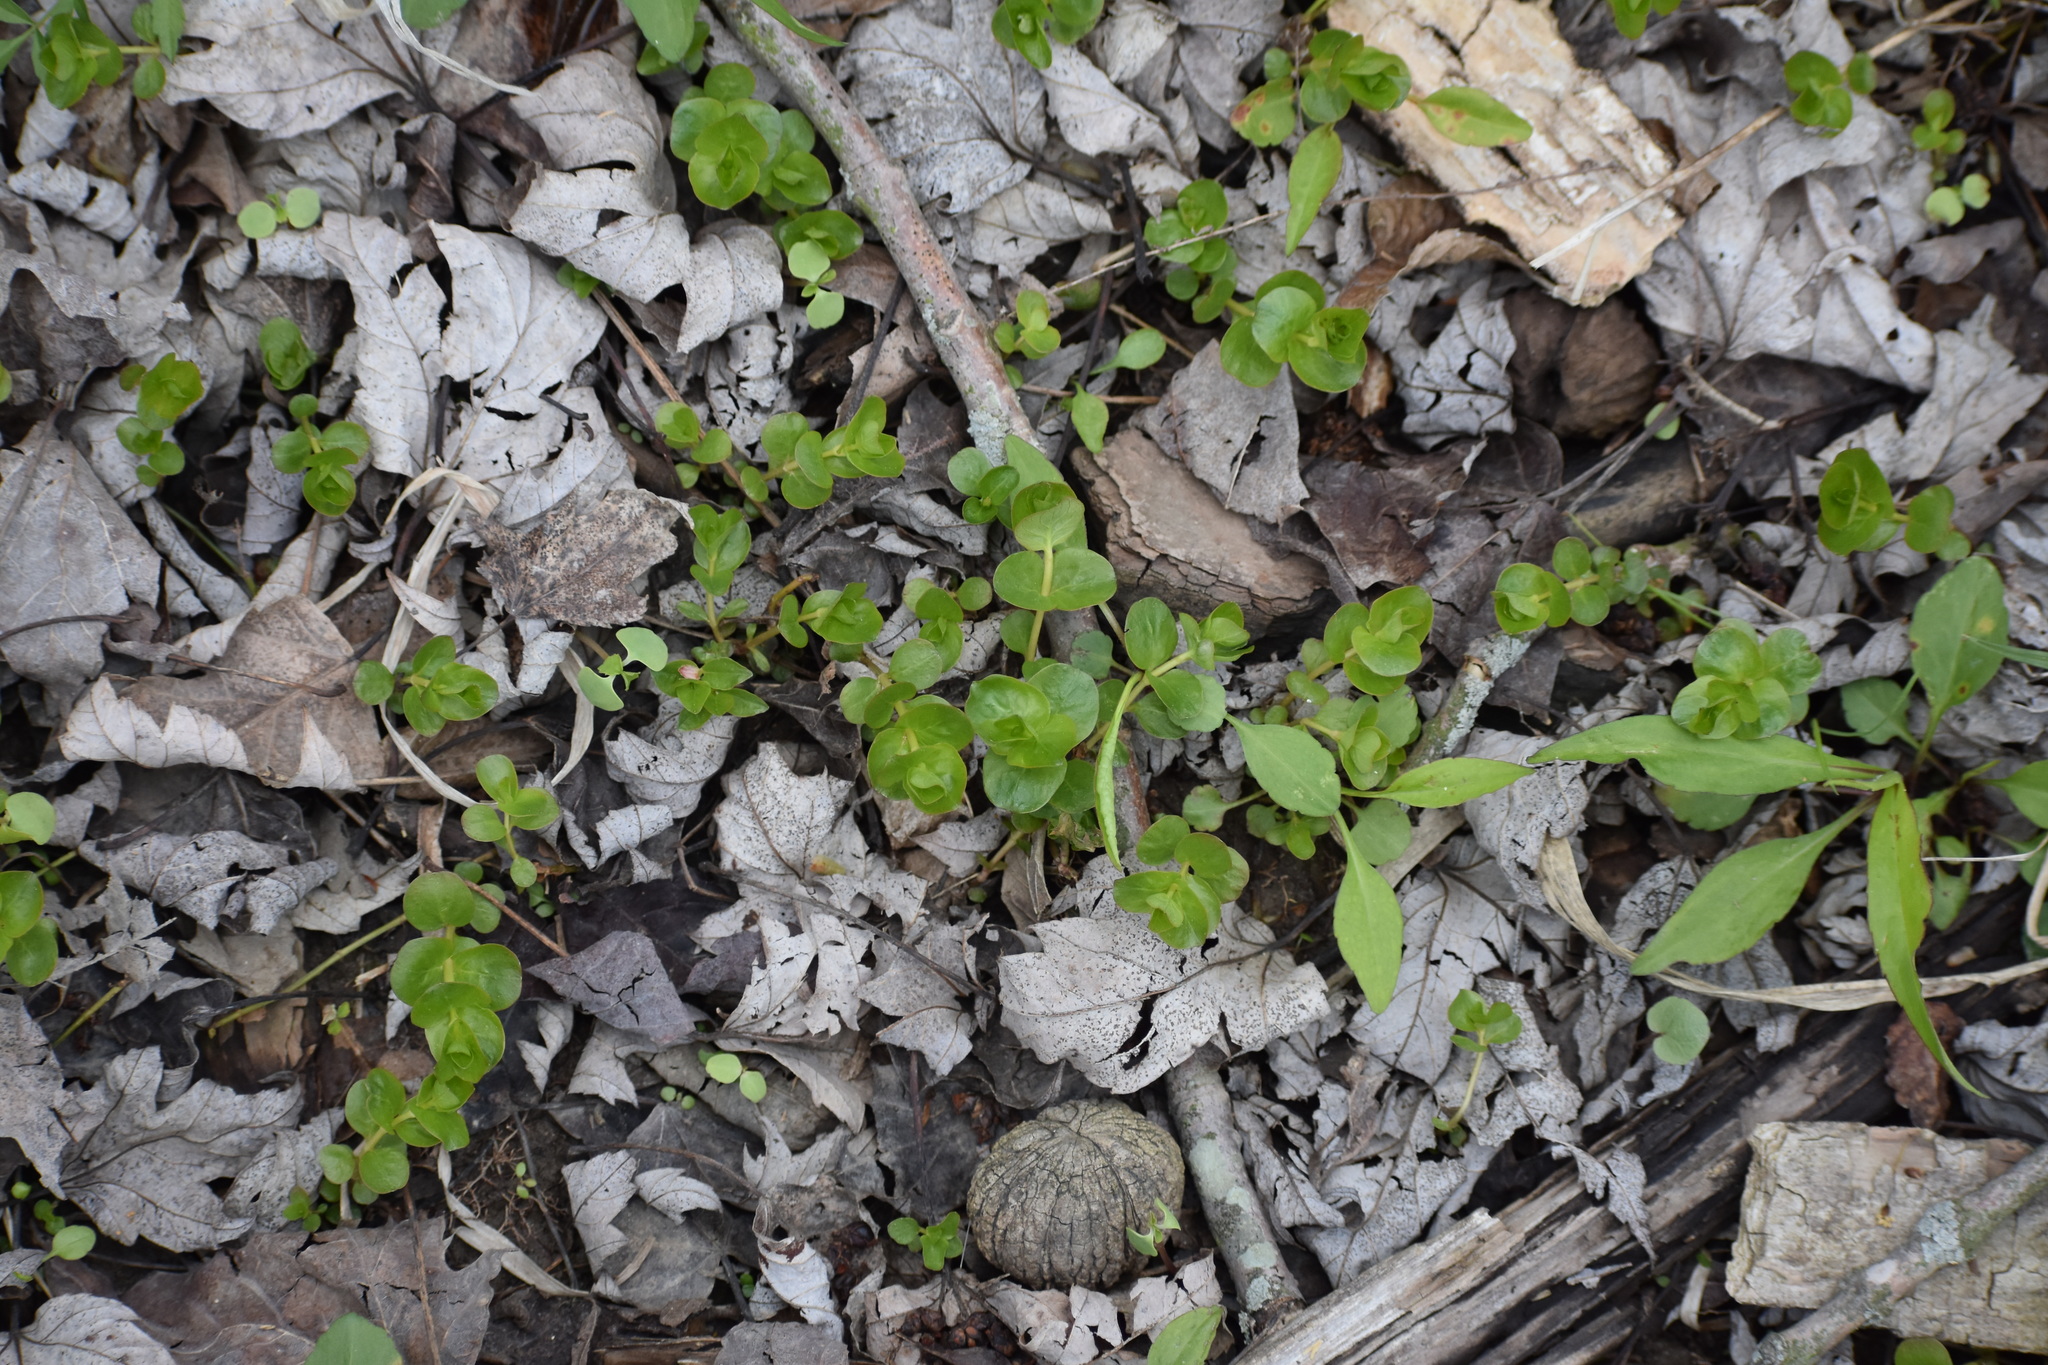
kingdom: Plantae
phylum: Tracheophyta
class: Magnoliopsida
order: Ericales
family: Primulaceae
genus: Lysimachia
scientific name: Lysimachia nummularia
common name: Moneywort
